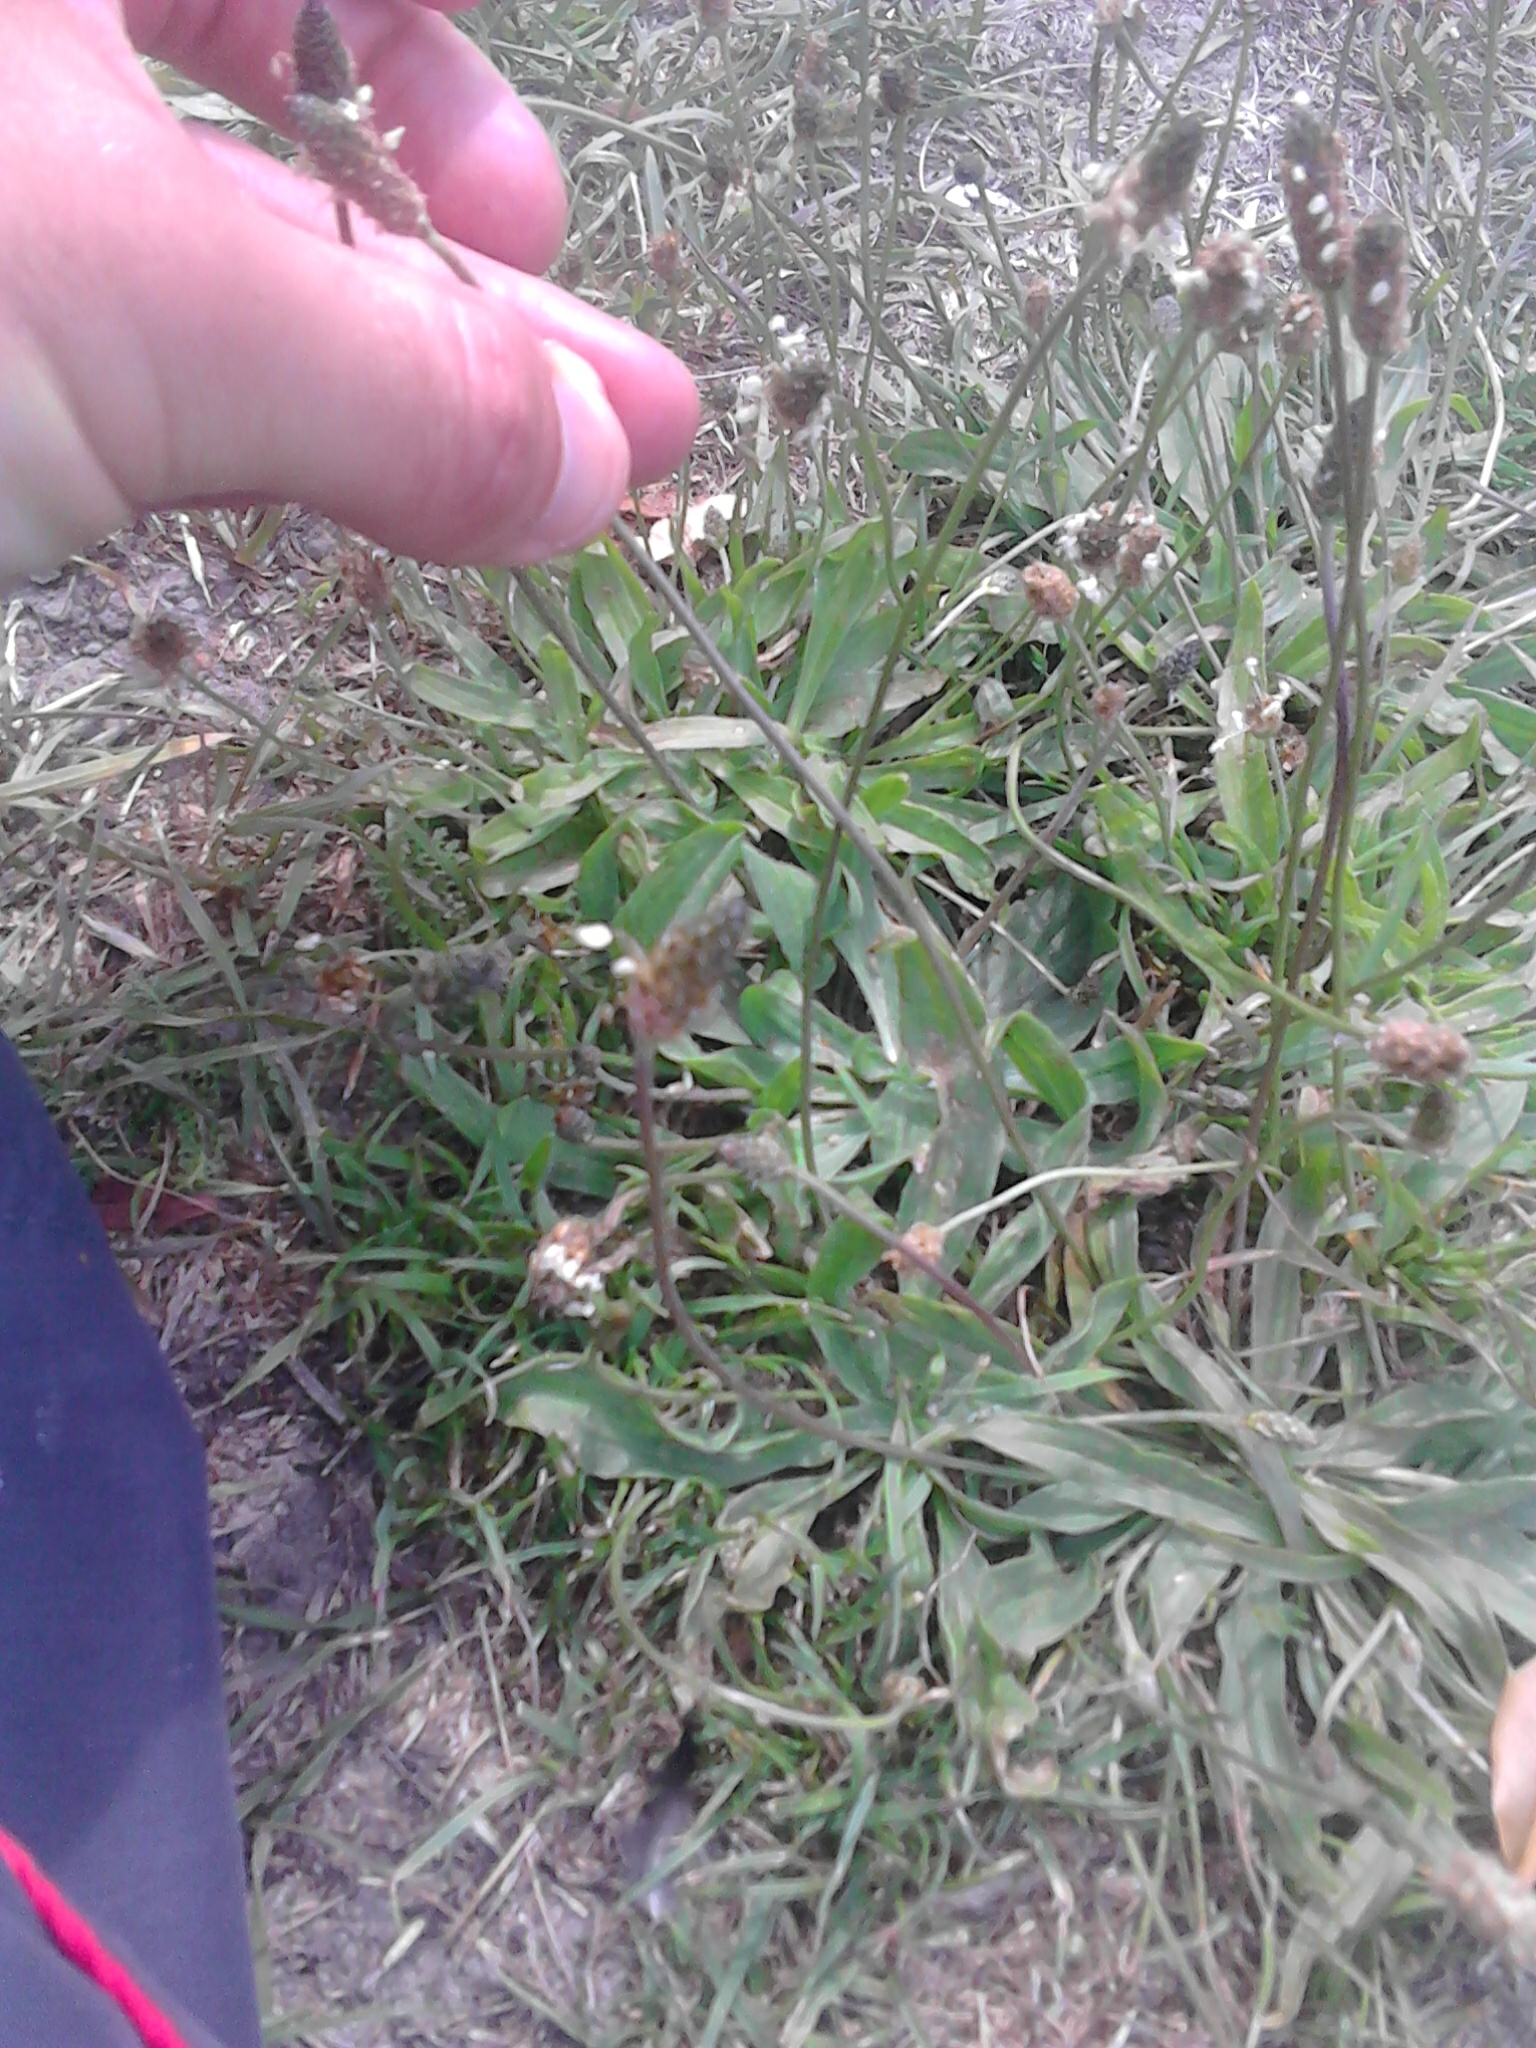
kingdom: Plantae
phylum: Tracheophyta
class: Magnoliopsida
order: Lamiales
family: Plantaginaceae
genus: Plantago
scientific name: Plantago lanceolata
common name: Ribwort plantain
